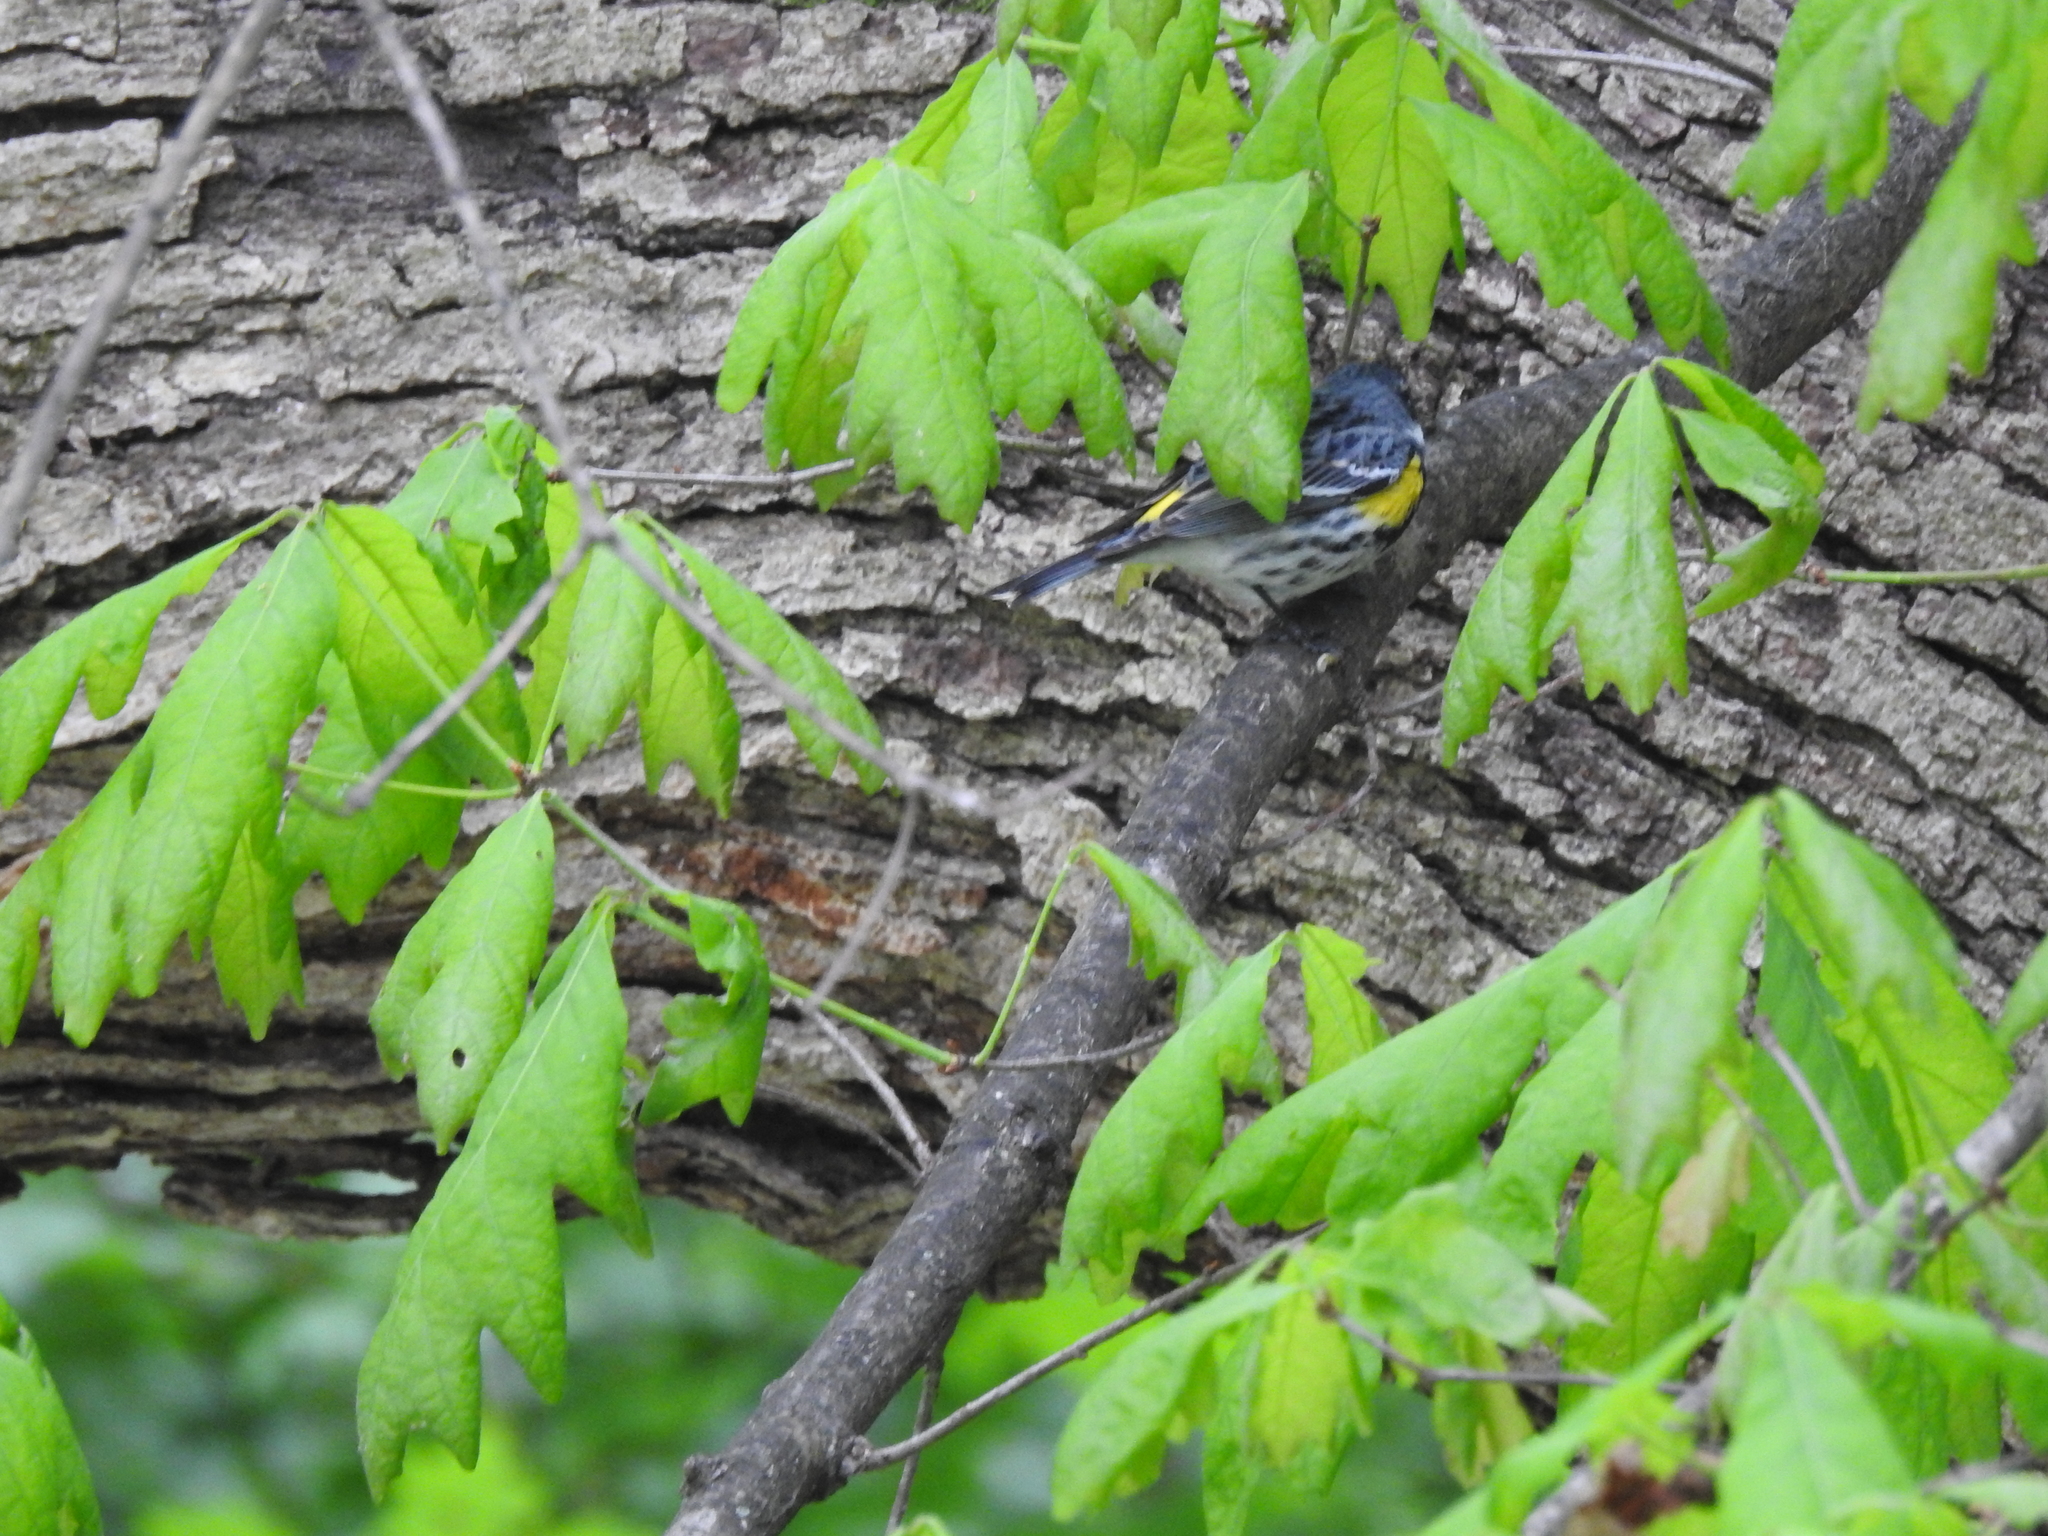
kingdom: Animalia
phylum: Chordata
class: Aves
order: Passeriformes
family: Parulidae
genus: Setophaga
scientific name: Setophaga coronata
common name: Myrtle warbler
